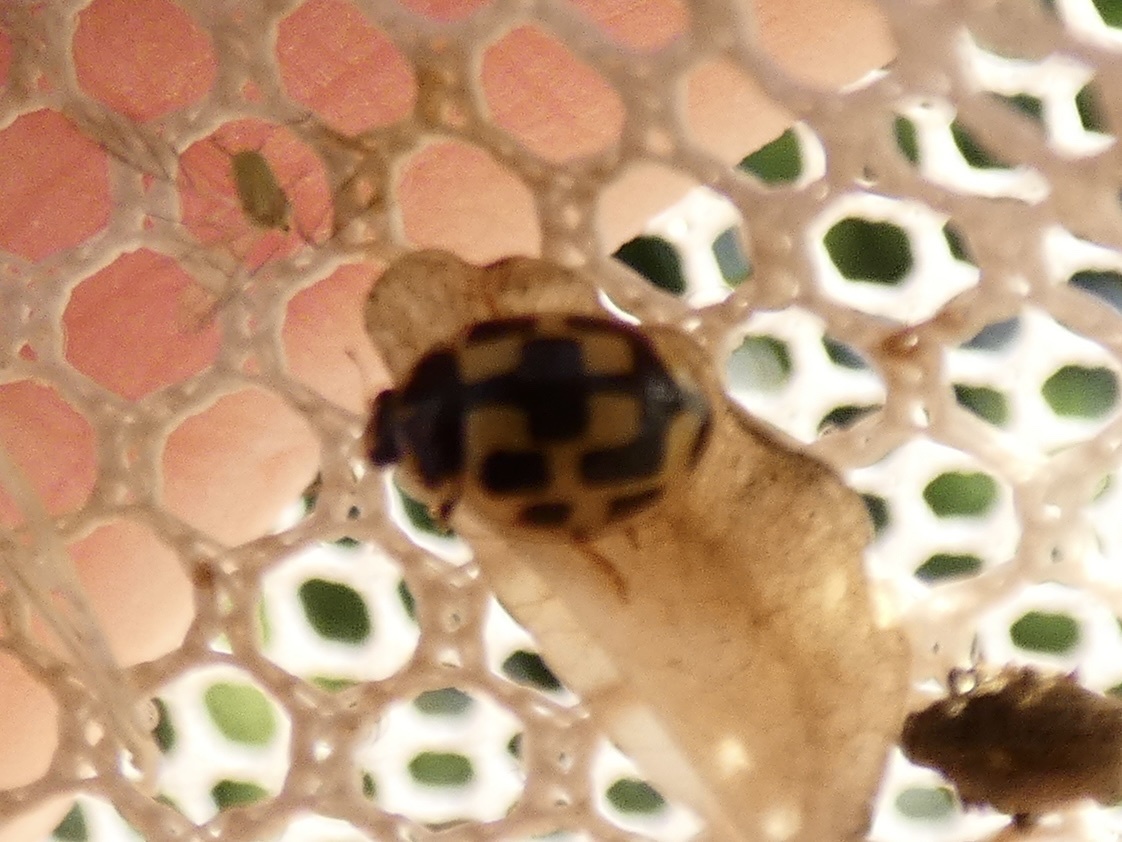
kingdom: Animalia
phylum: Arthropoda
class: Insecta
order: Coleoptera
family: Coccinellidae
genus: Propylaea
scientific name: Propylaea quatuordecimpunctata
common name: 14-spotted ladybird beetle
